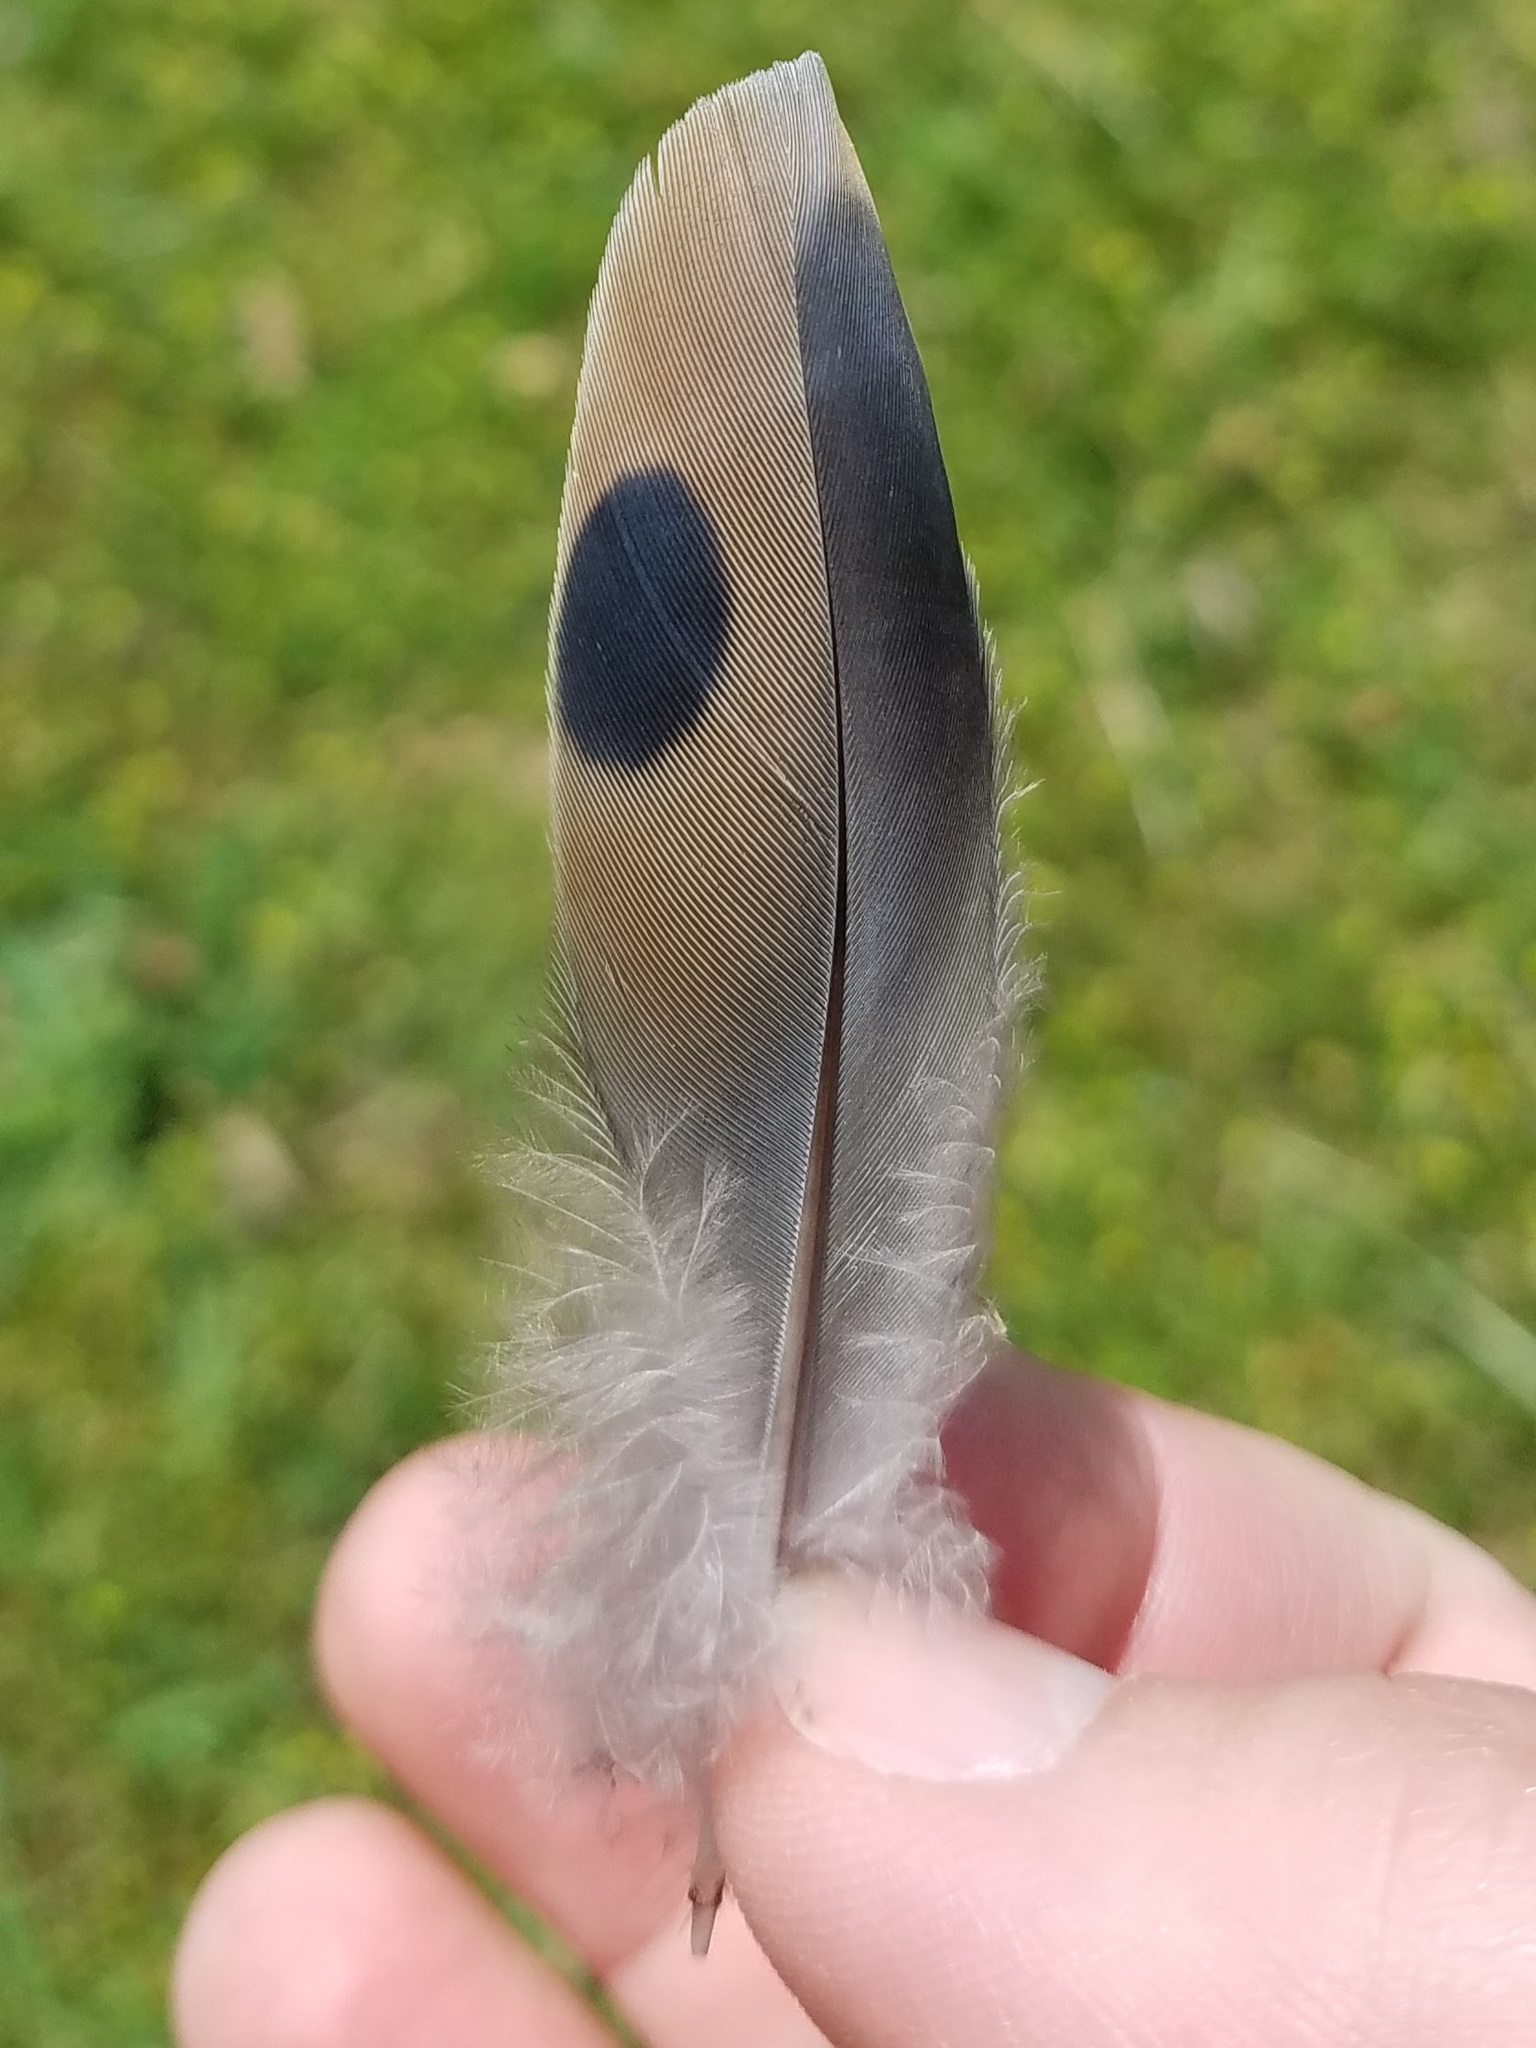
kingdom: Animalia
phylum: Chordata
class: Aves
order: Columbiformes
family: Columbidae
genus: Zenaida
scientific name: Zenaida macroura
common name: Mourning dove
